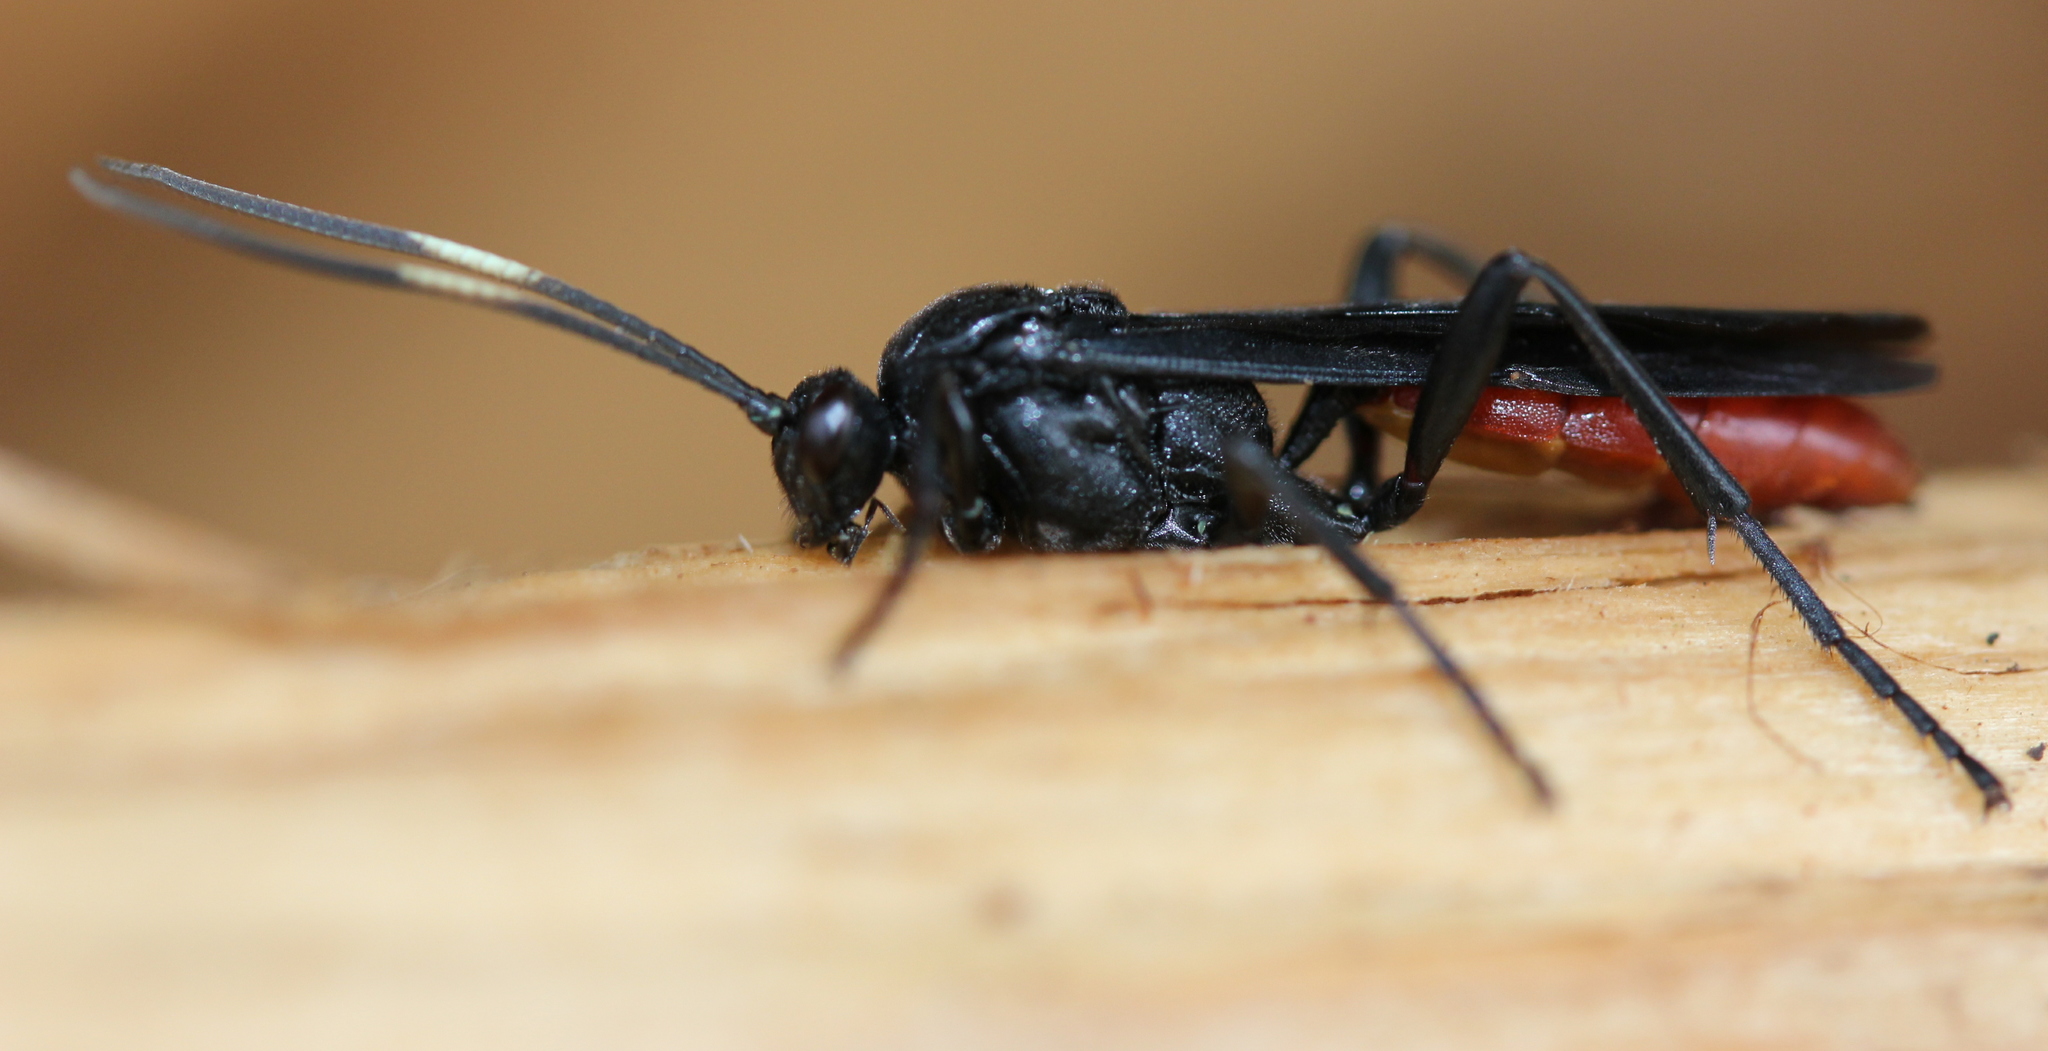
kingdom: Animalia
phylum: Arthropoda
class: Insecta
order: Hymenoptera
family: Ichneumonidae
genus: Protichneumon
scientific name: Protichneumon grandis
